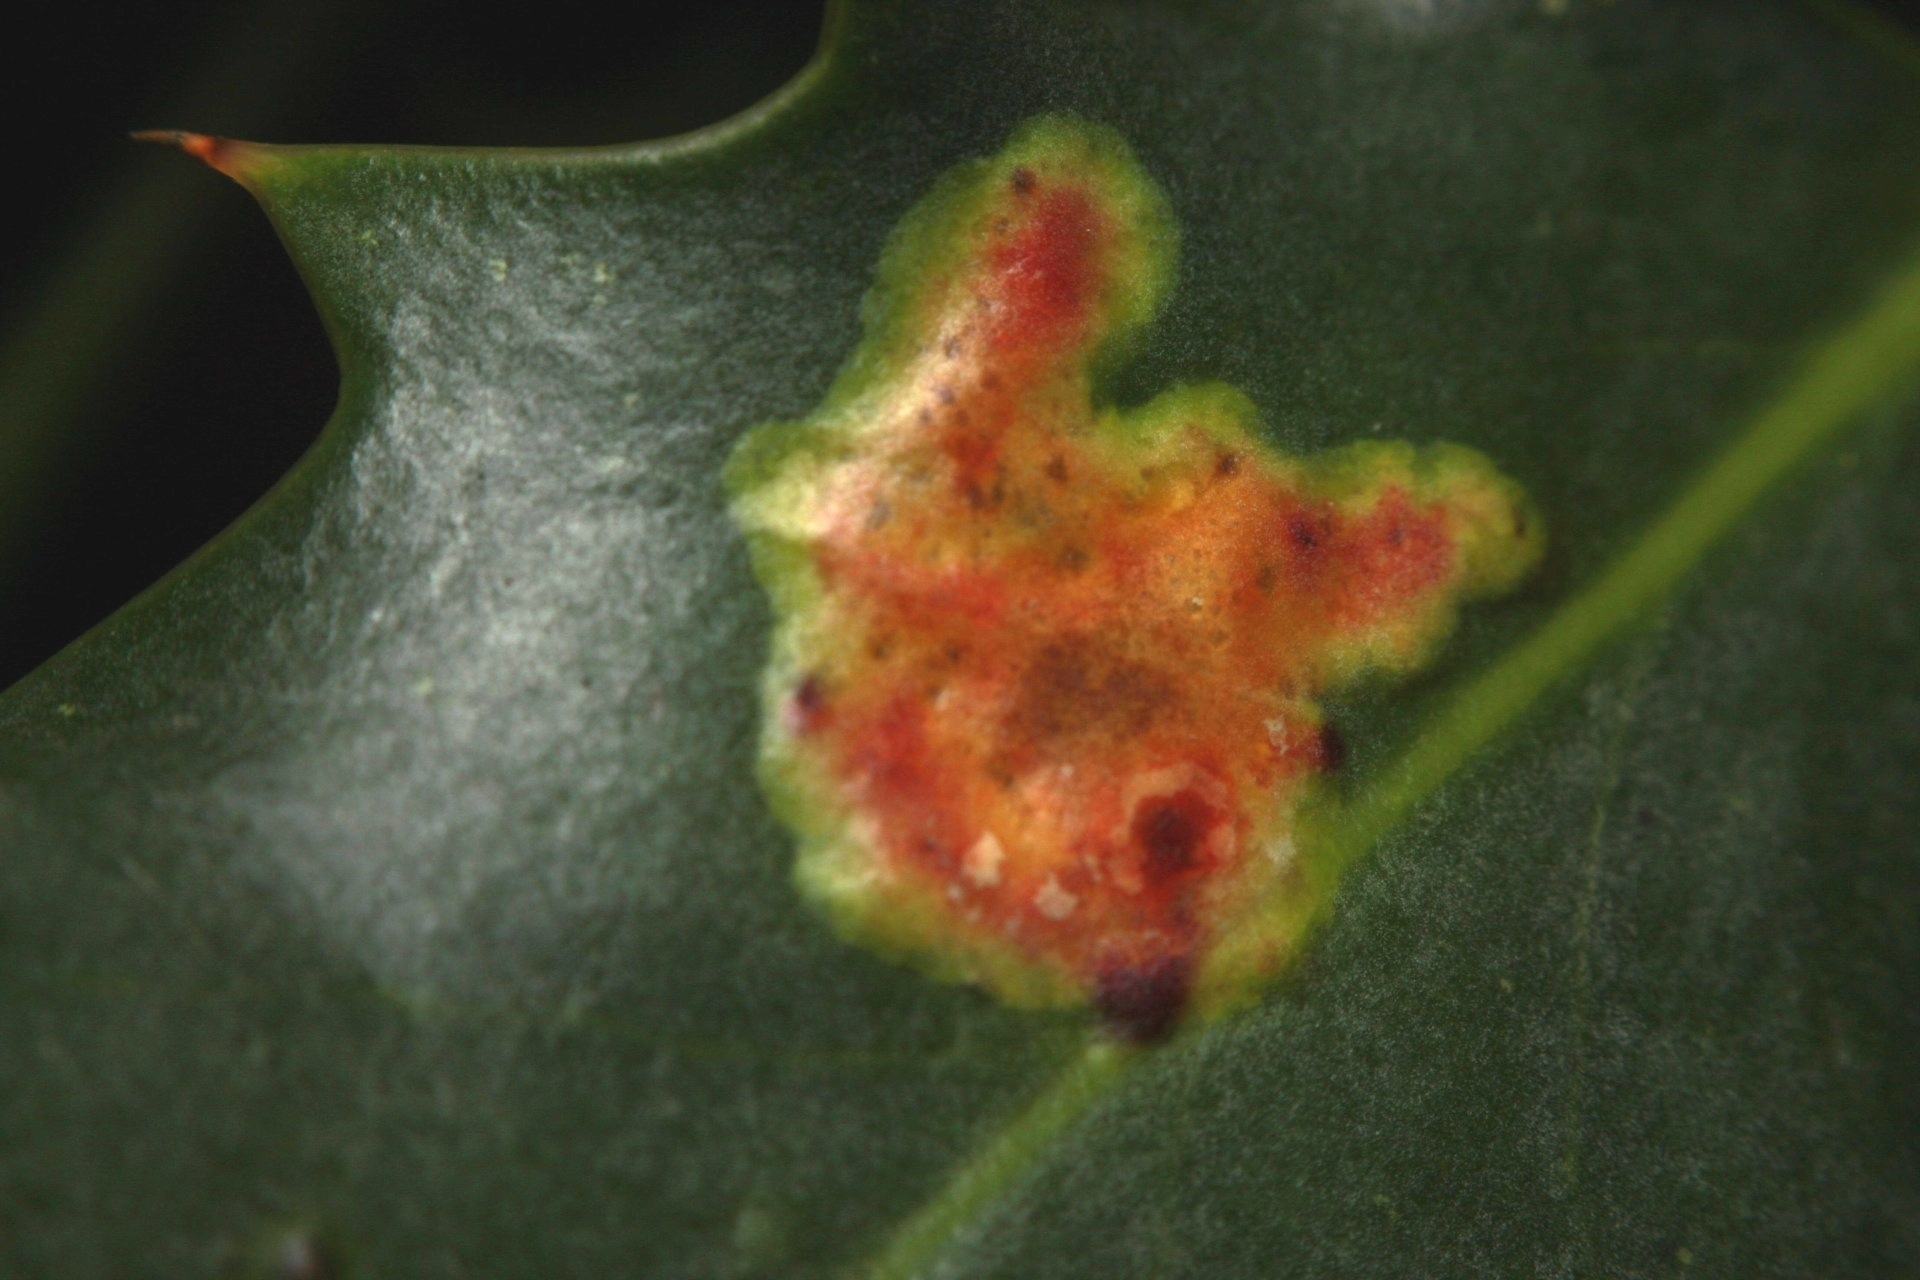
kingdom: Animalia
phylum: Arthropoda
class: Insecta
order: Diptera
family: Agromyzidae
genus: Phytomyza
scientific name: Phytomyza ilicis
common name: Holly leafminer
